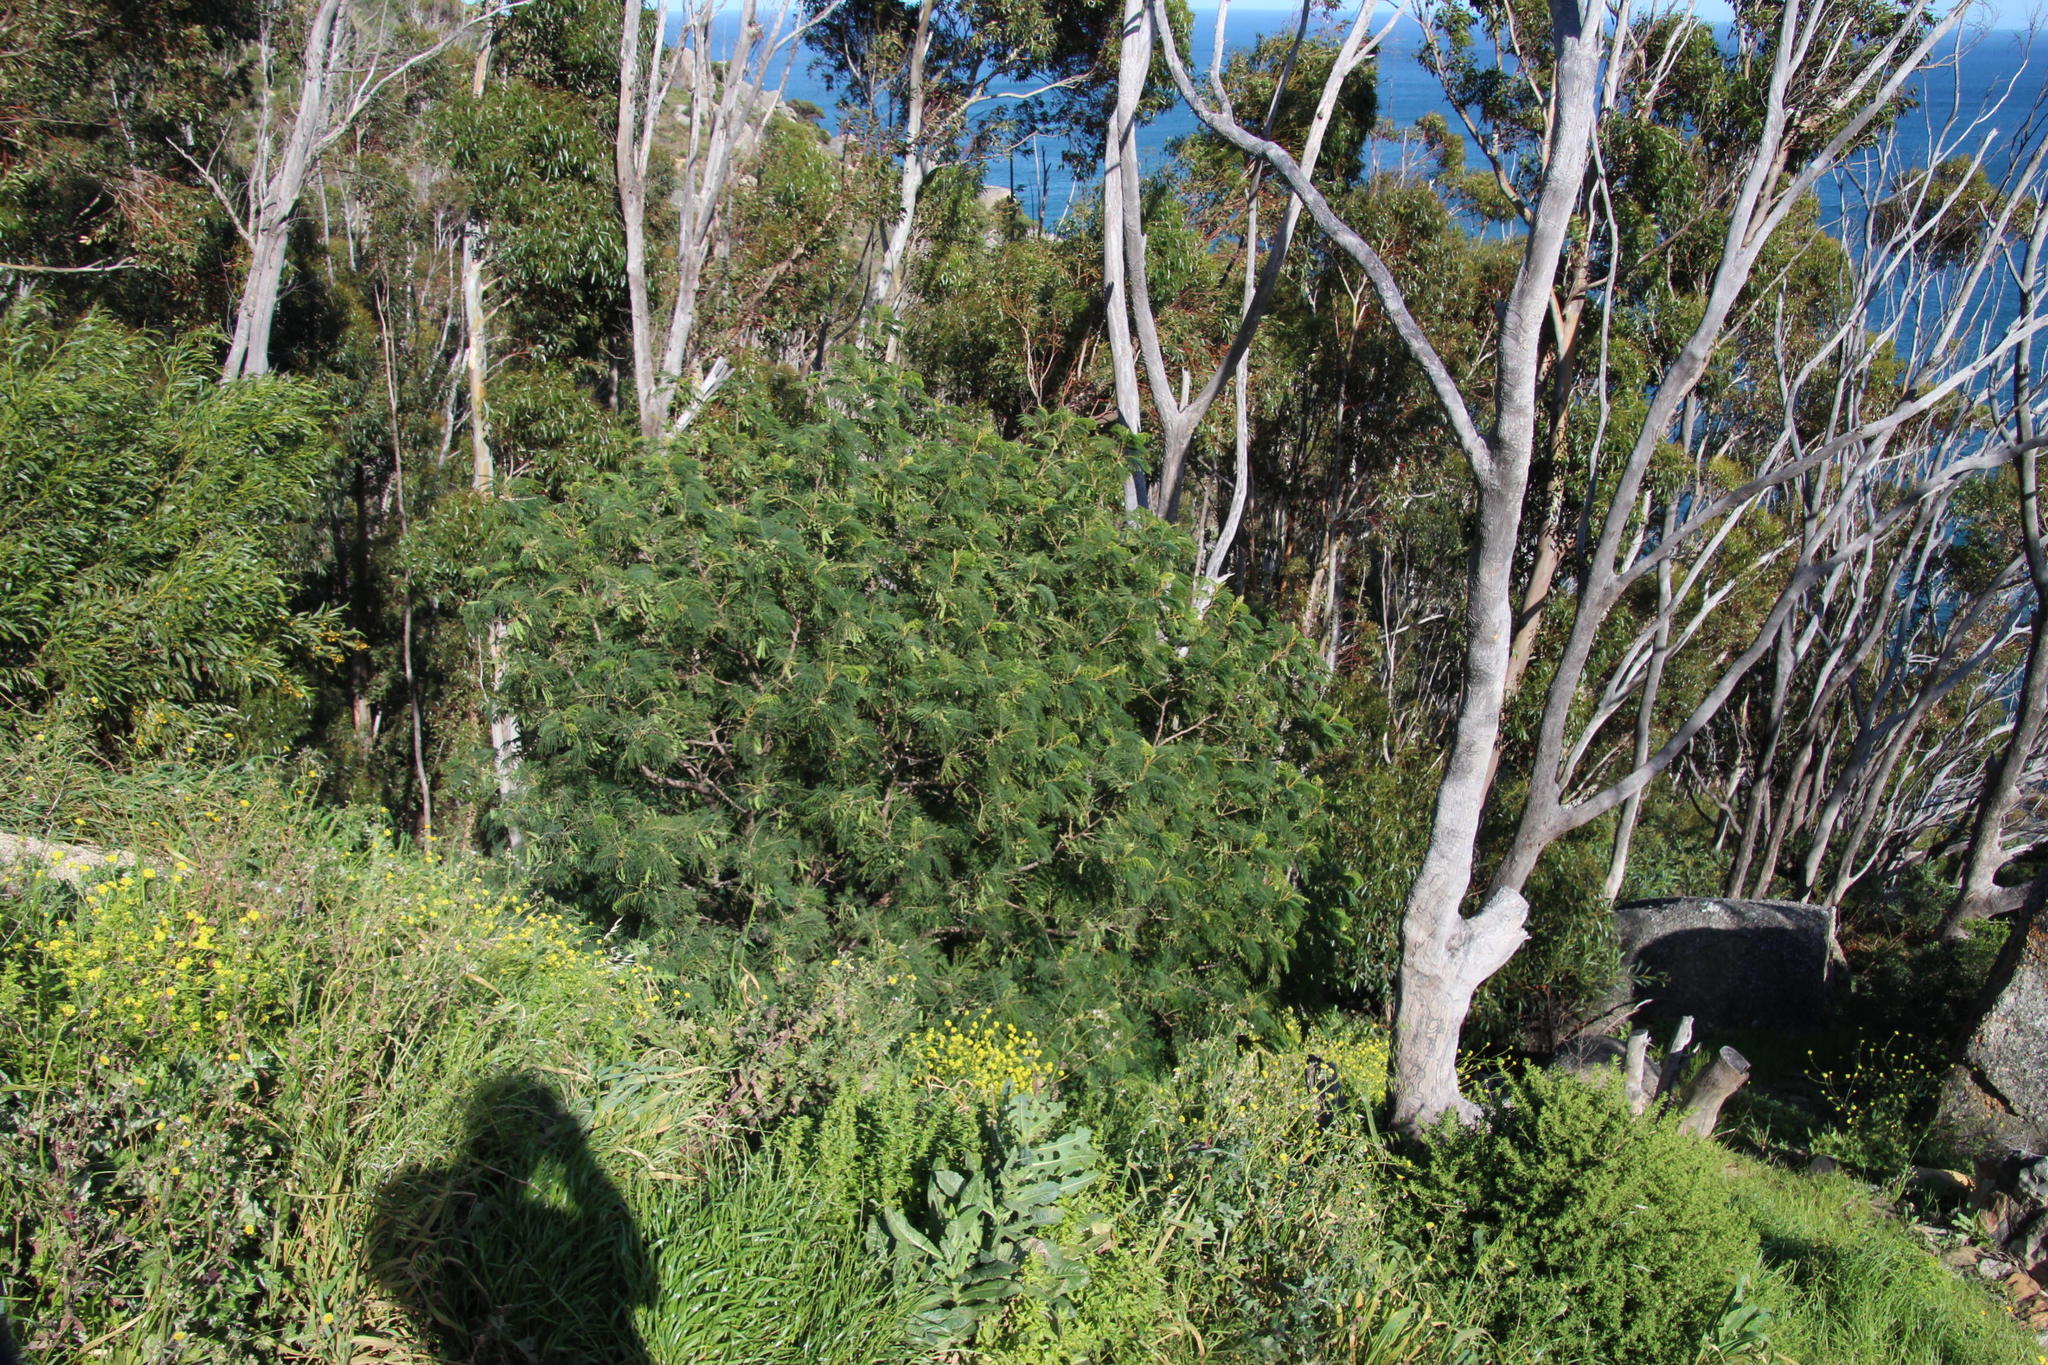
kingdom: Plantae
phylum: Tracheophyta
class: Magnoliopsida
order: Fabales
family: Fabaceae
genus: Paraserianthes
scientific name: Paraserianthes lophantha
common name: Plume albizia
